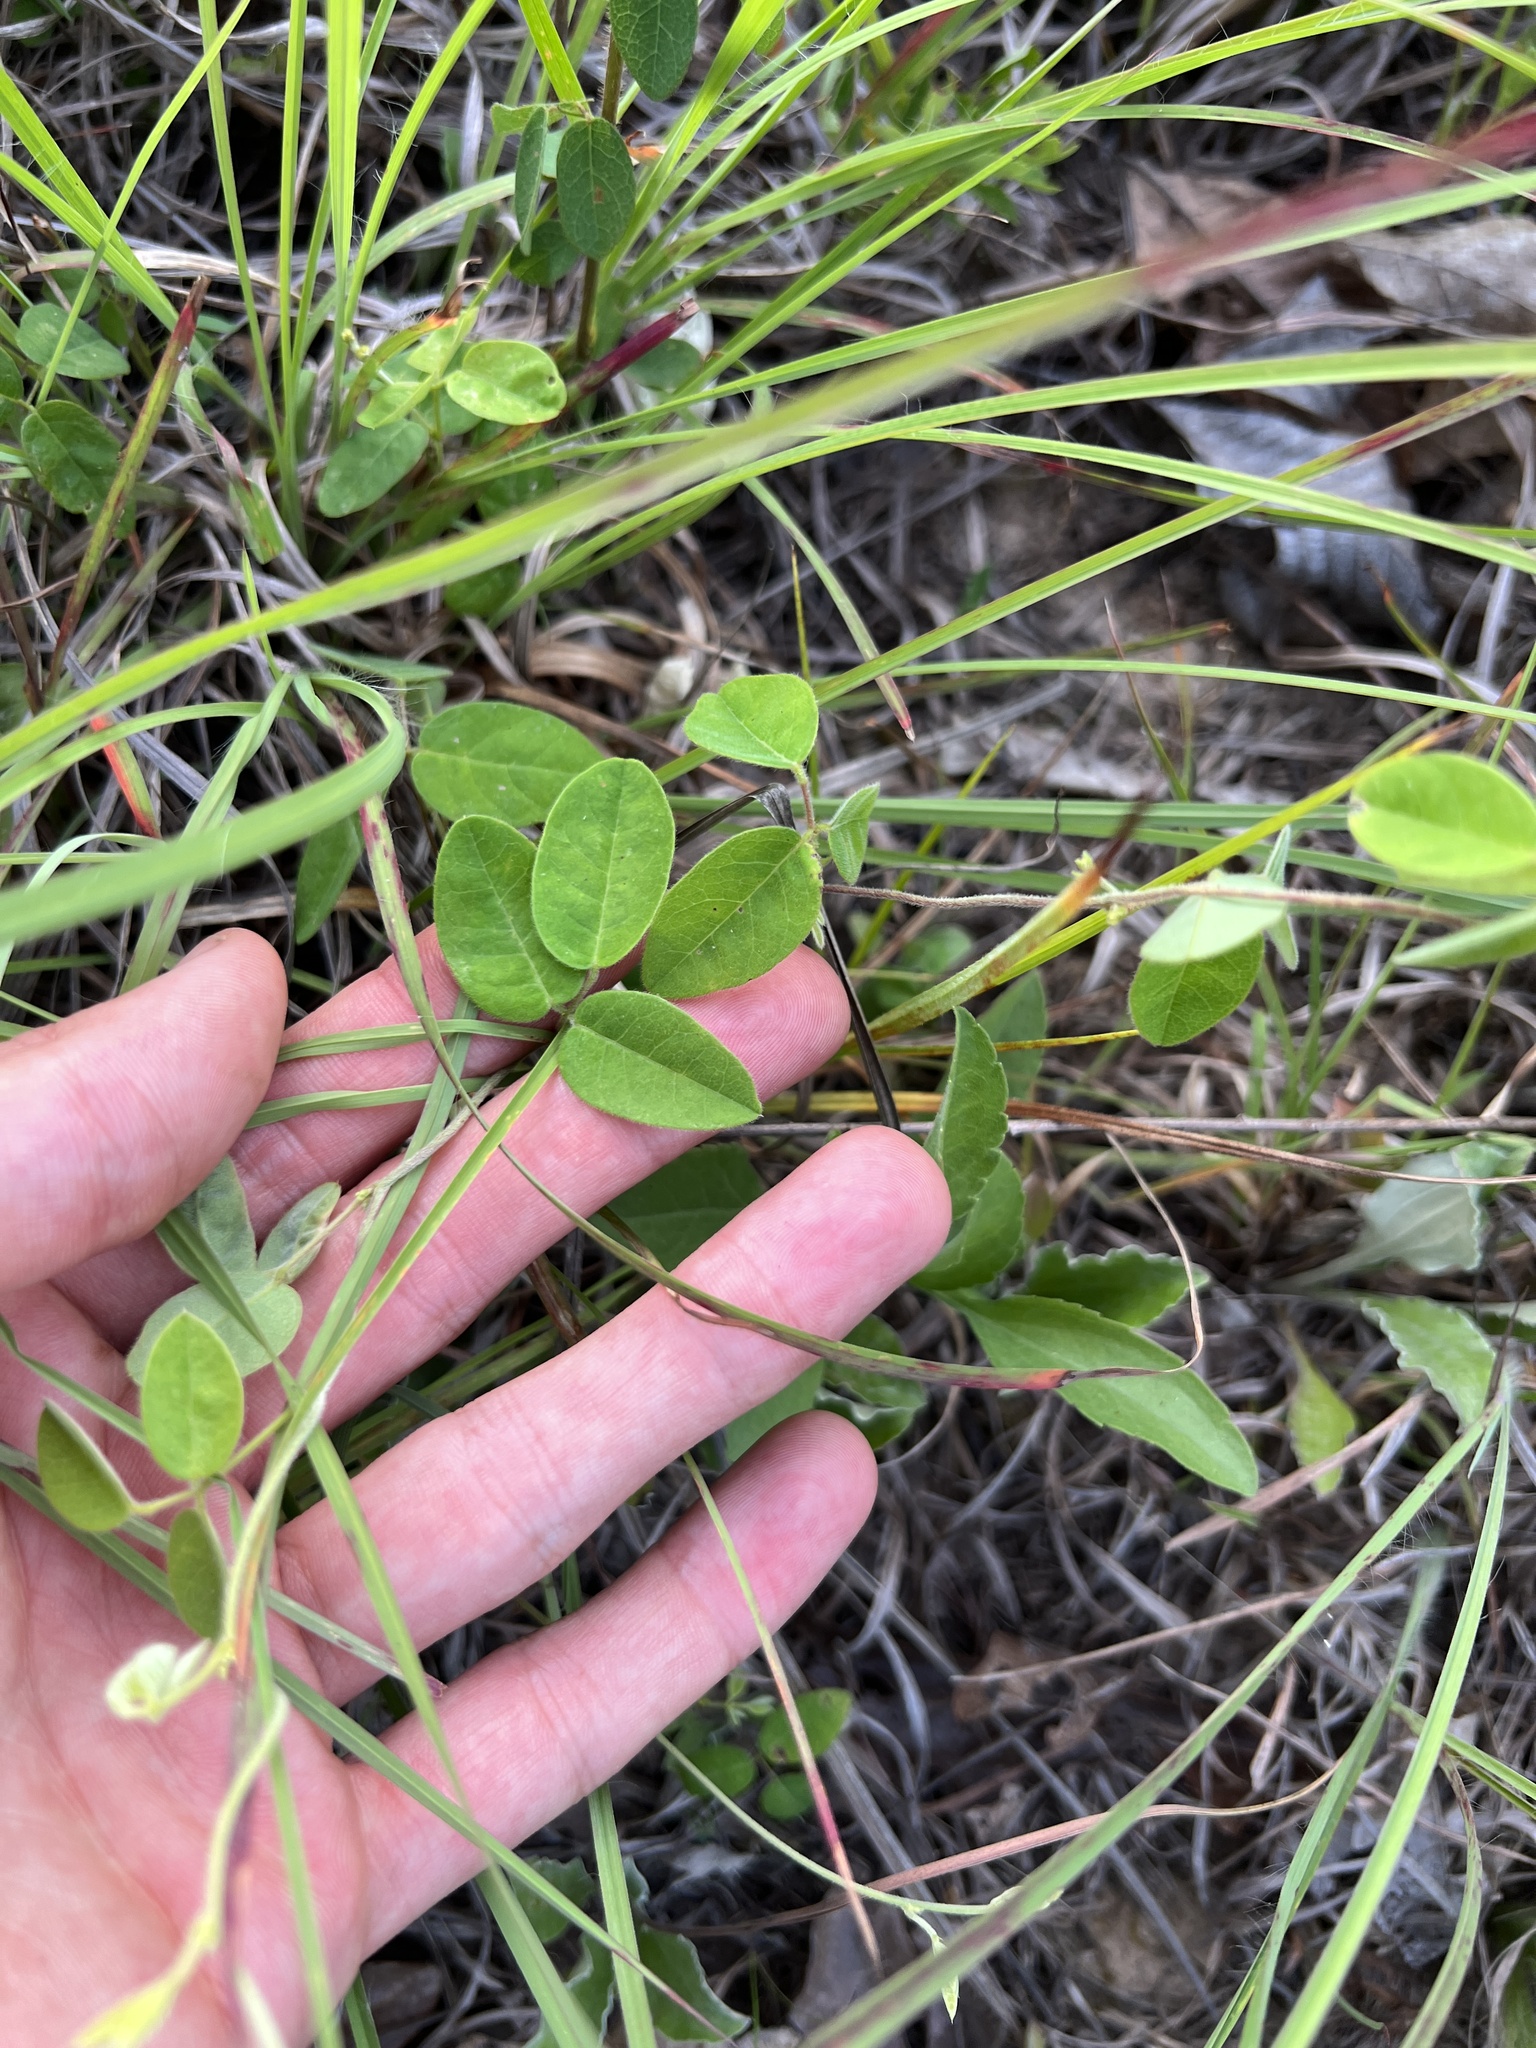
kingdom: Plantae
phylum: Tracheophyta
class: Magnoliopsida
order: Fabales
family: Fabaceae
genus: Galactia
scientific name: Galactia regularis
